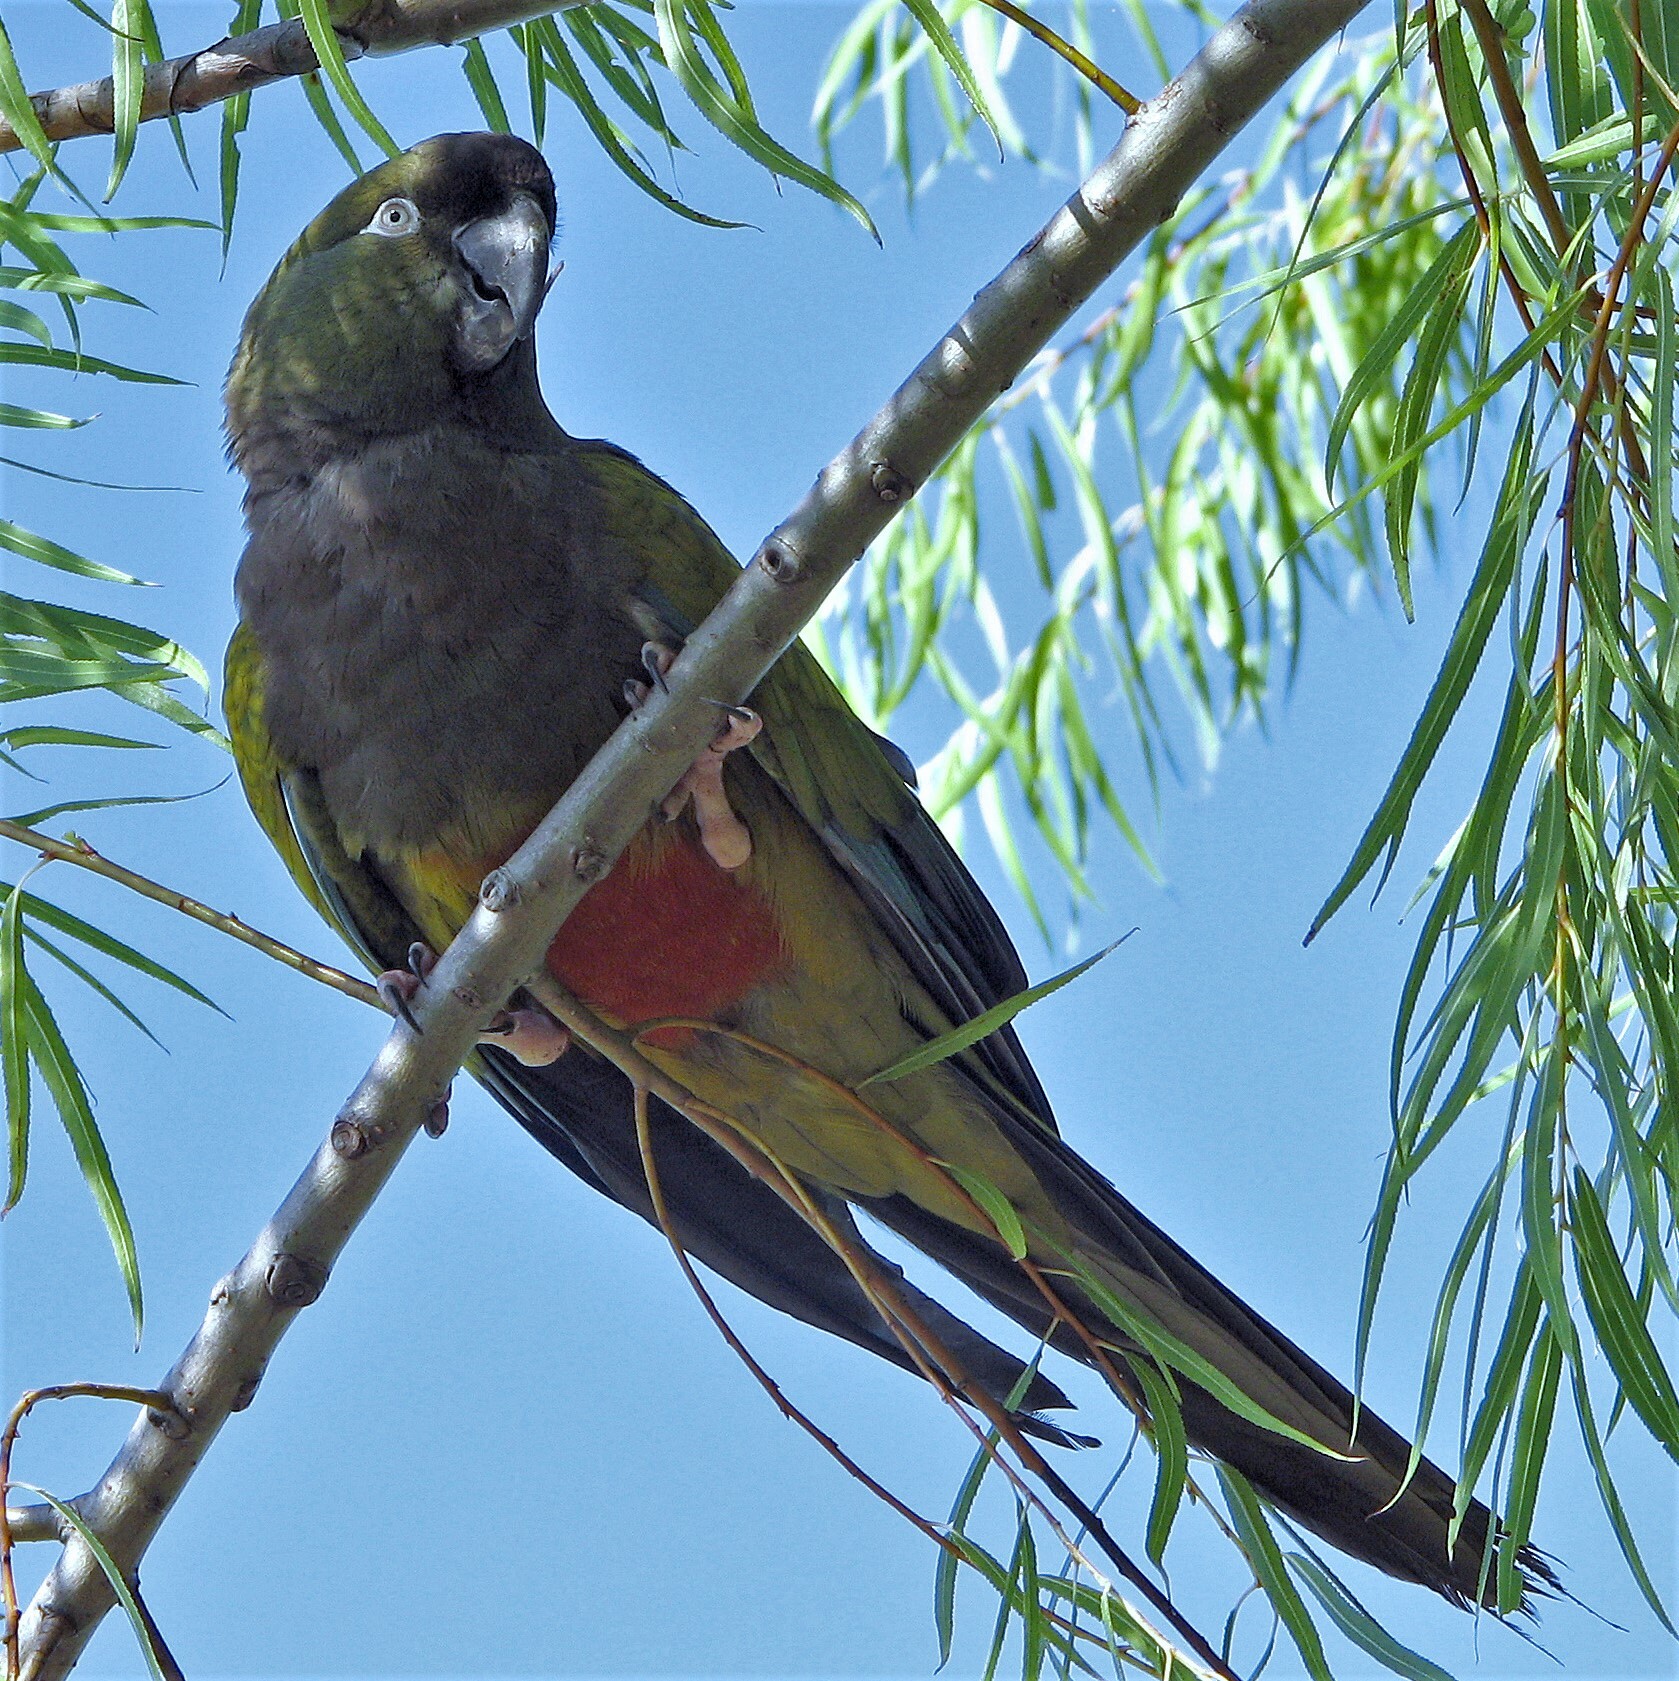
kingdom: Animalia
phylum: Chordata
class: Aves
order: Psittaciformes
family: Psittacidae
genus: Cyanoliseus
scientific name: Cyanoliseus patagonus
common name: Burrowing parrot
